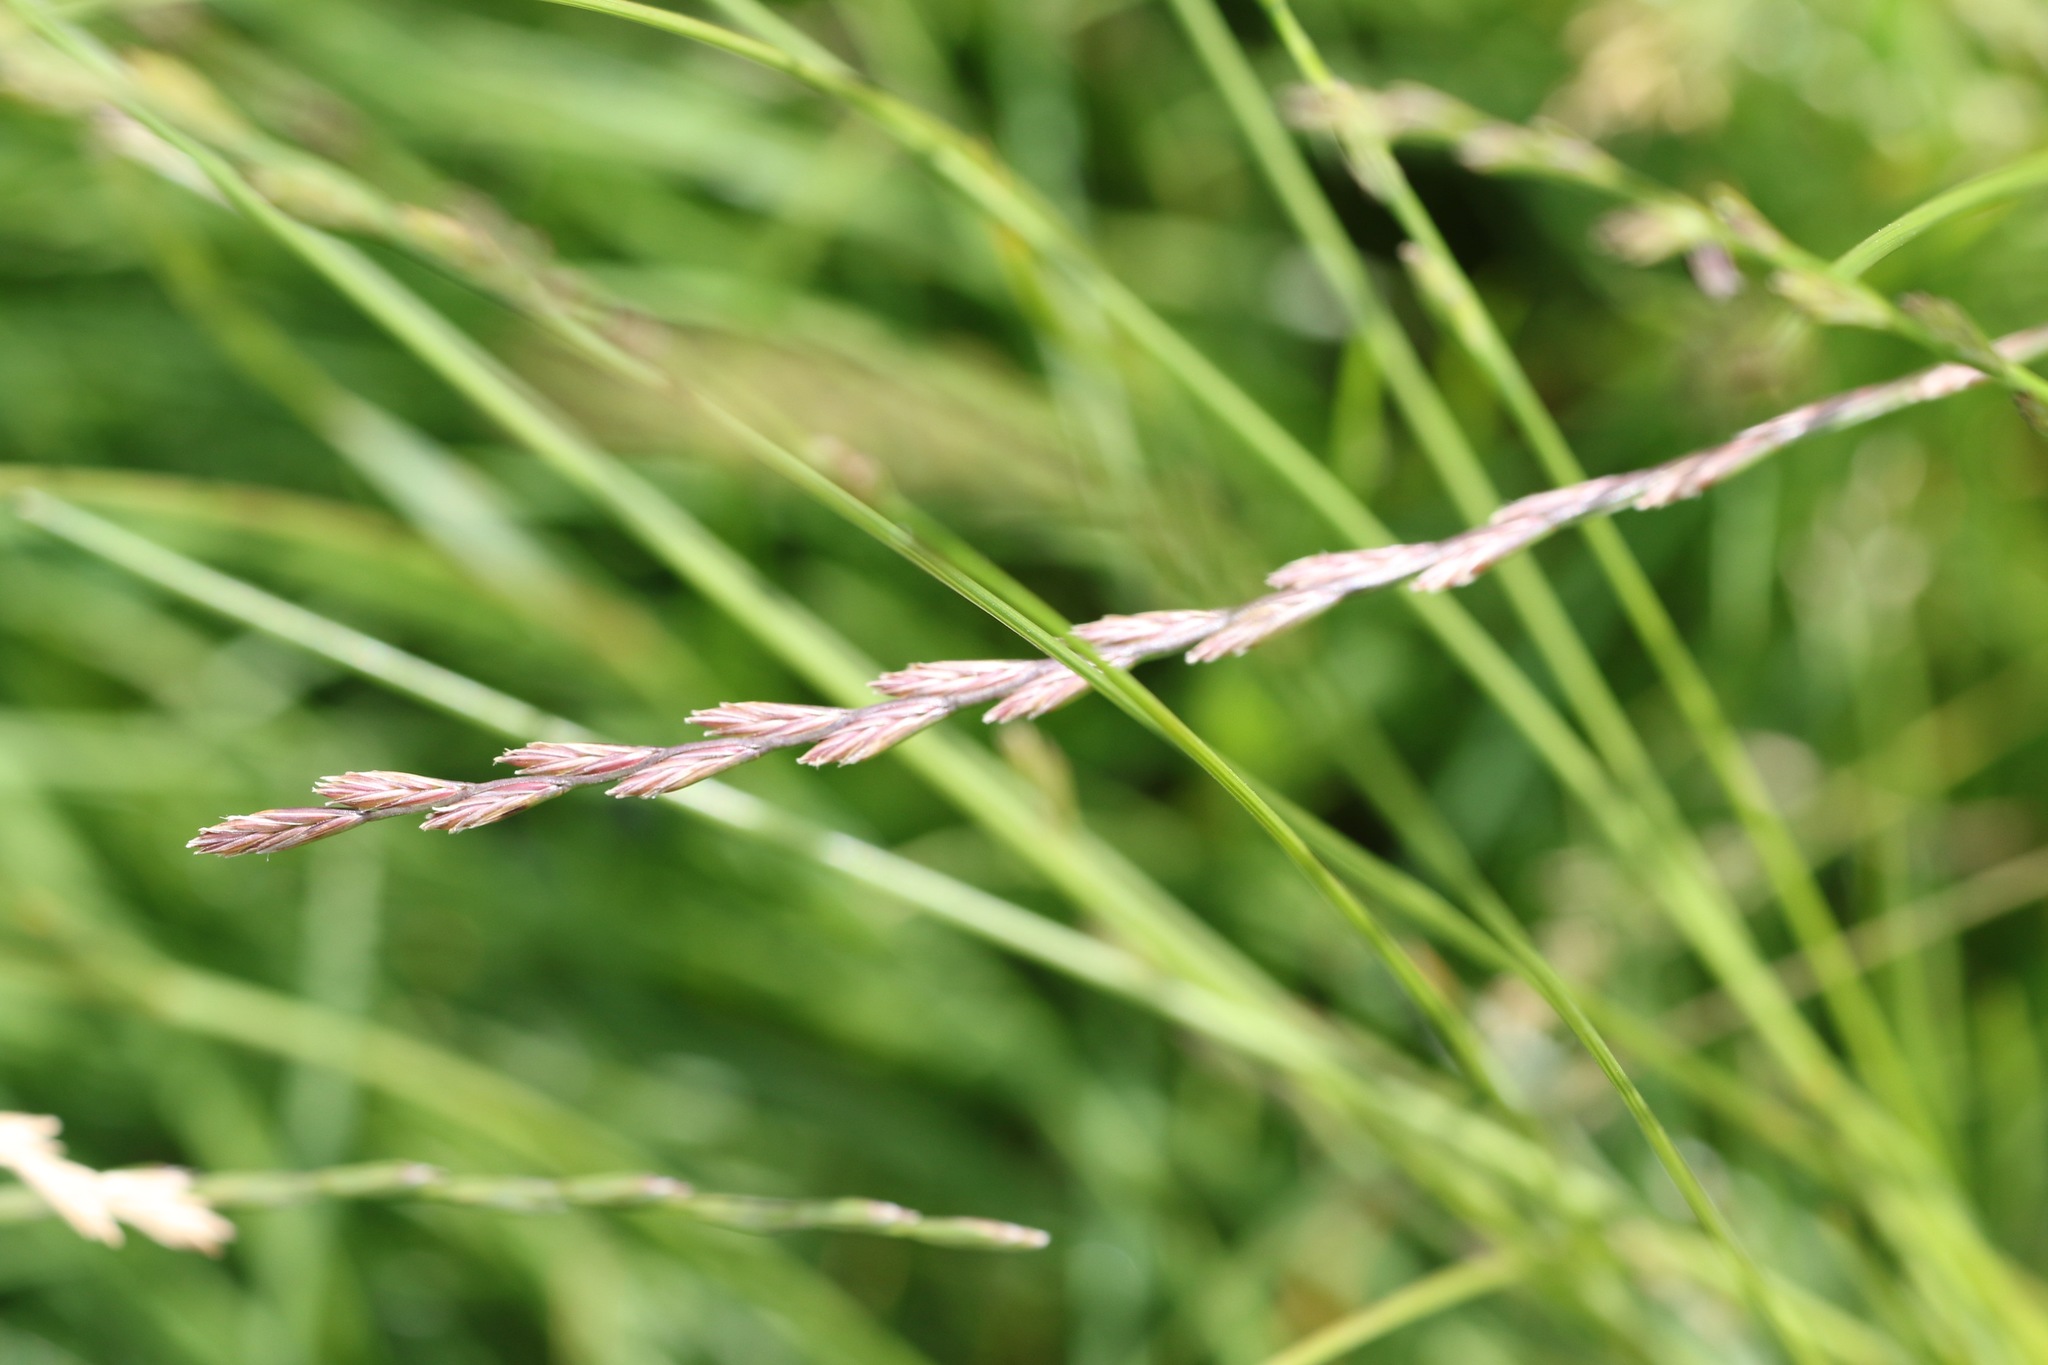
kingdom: Plantae
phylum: Tracheophyta
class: Liliopsida
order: Poales
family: Poaceae
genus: Lolium
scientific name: Lolium perenne
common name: Perennial ryegrass
